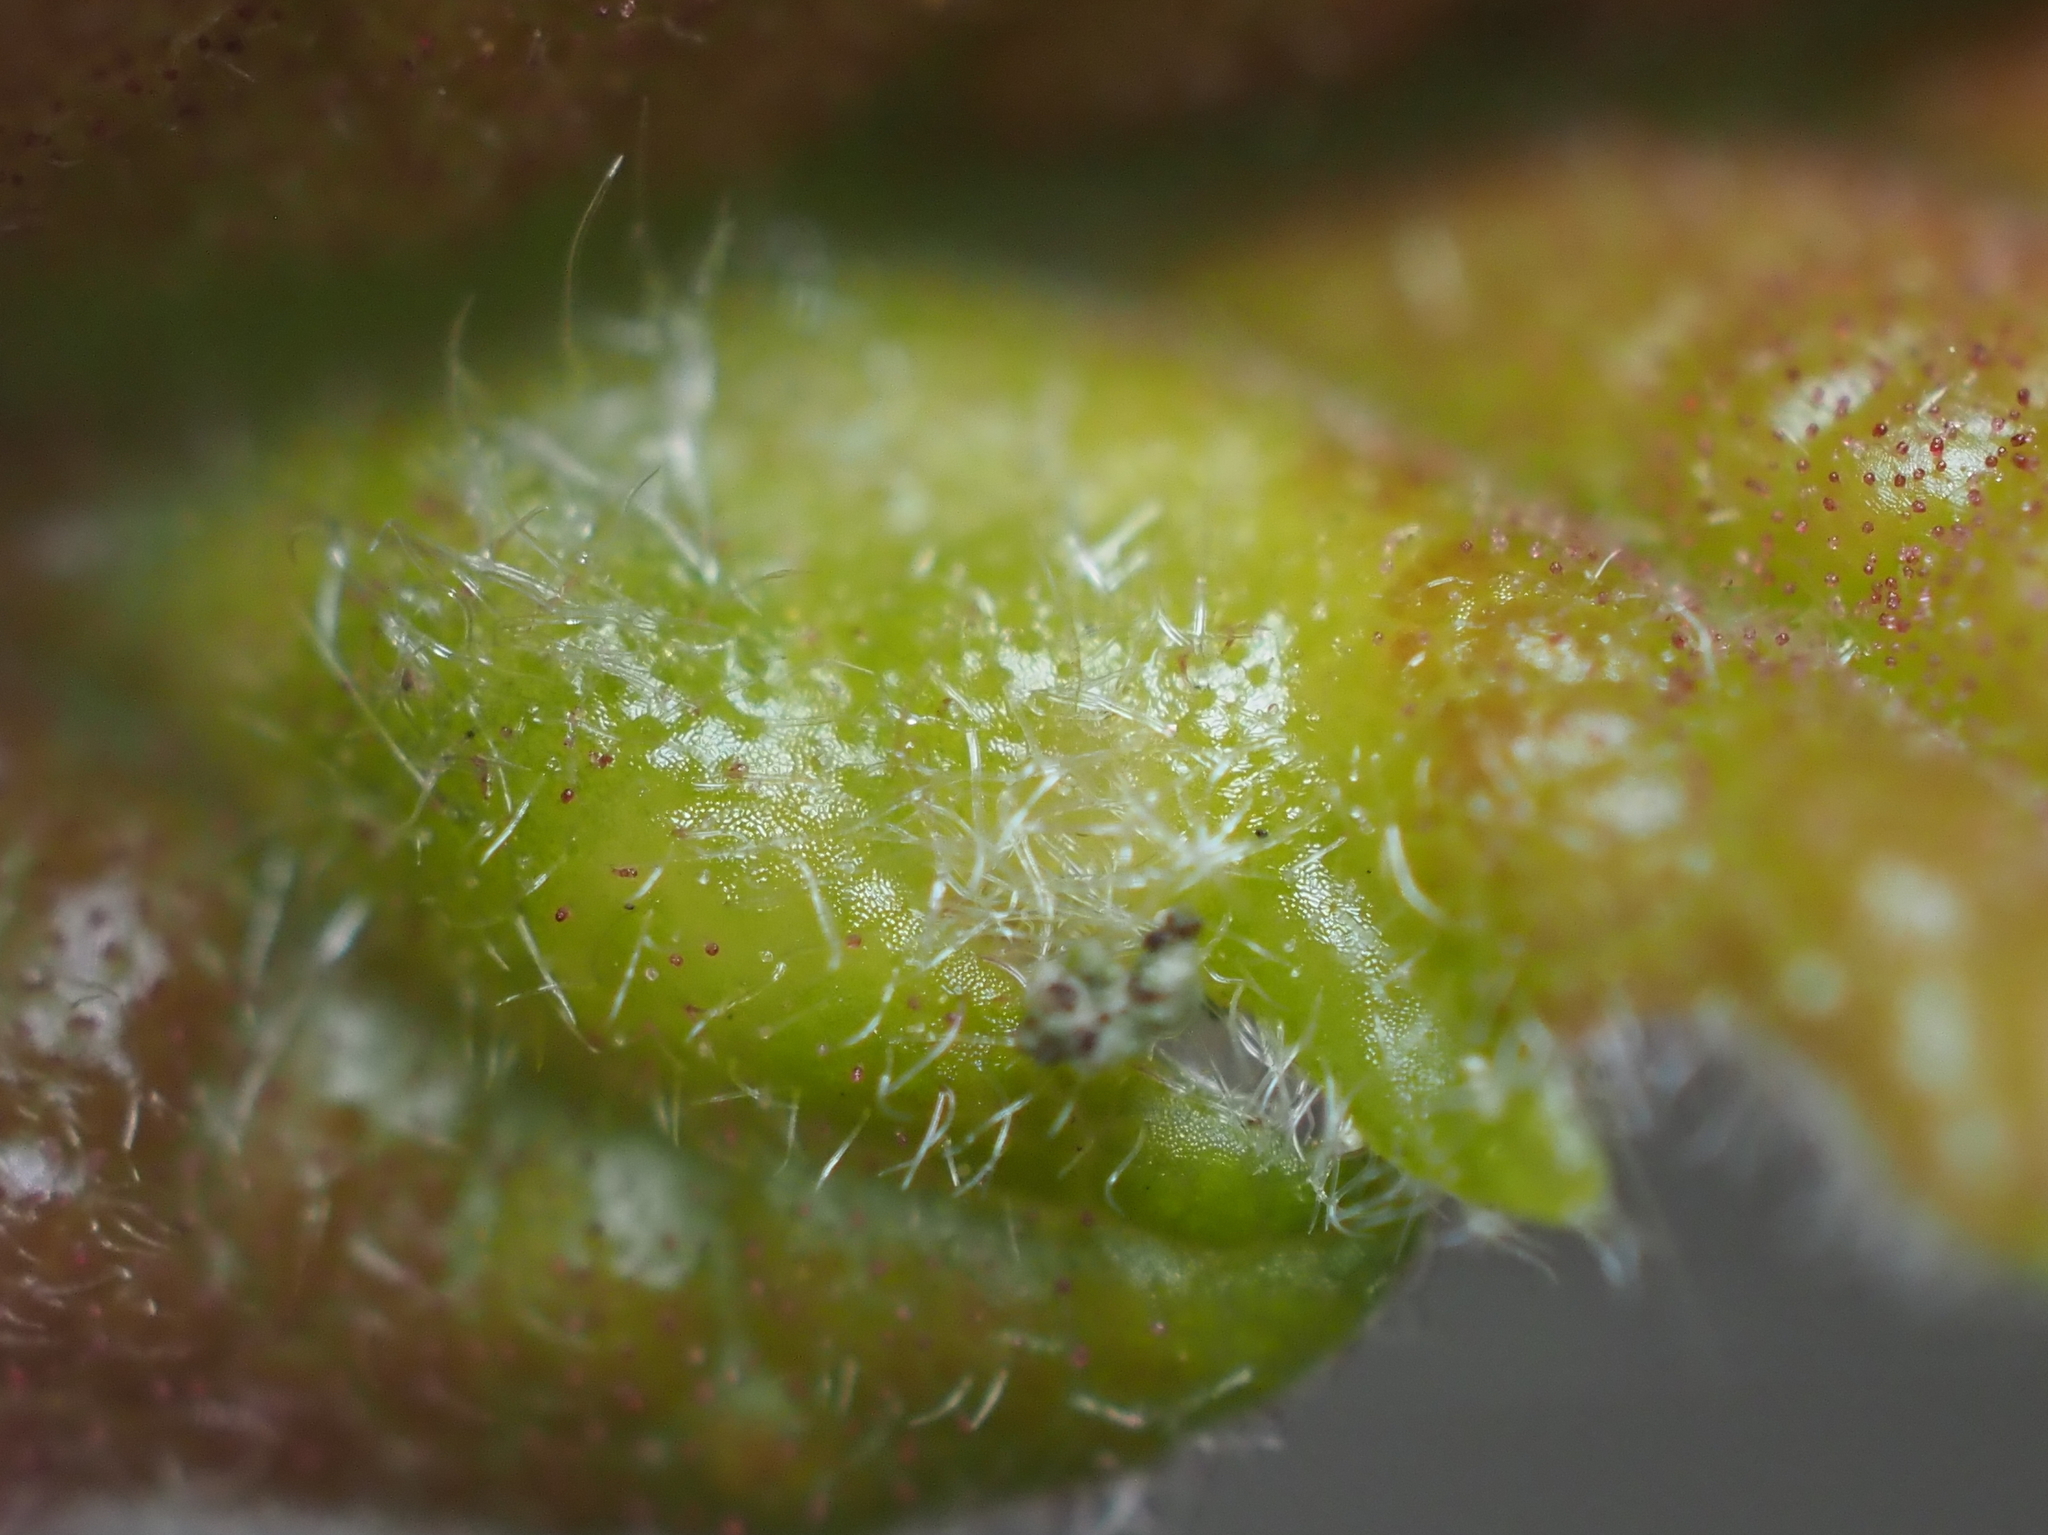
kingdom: Animalia
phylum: Arthropoda
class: Insecta
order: Hymenoptera
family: Cynipidae
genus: Neuroterus
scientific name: Neuroterus
